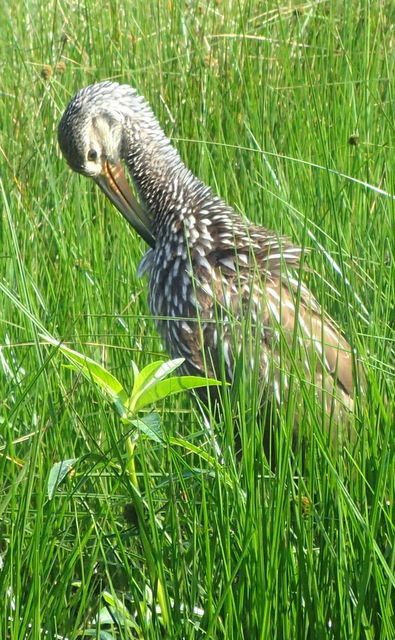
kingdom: Animalia
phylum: Chordata
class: Aves
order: Gruiformes
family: Aramidae
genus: Aramus
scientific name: Aramus guarauna
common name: Limpkin
